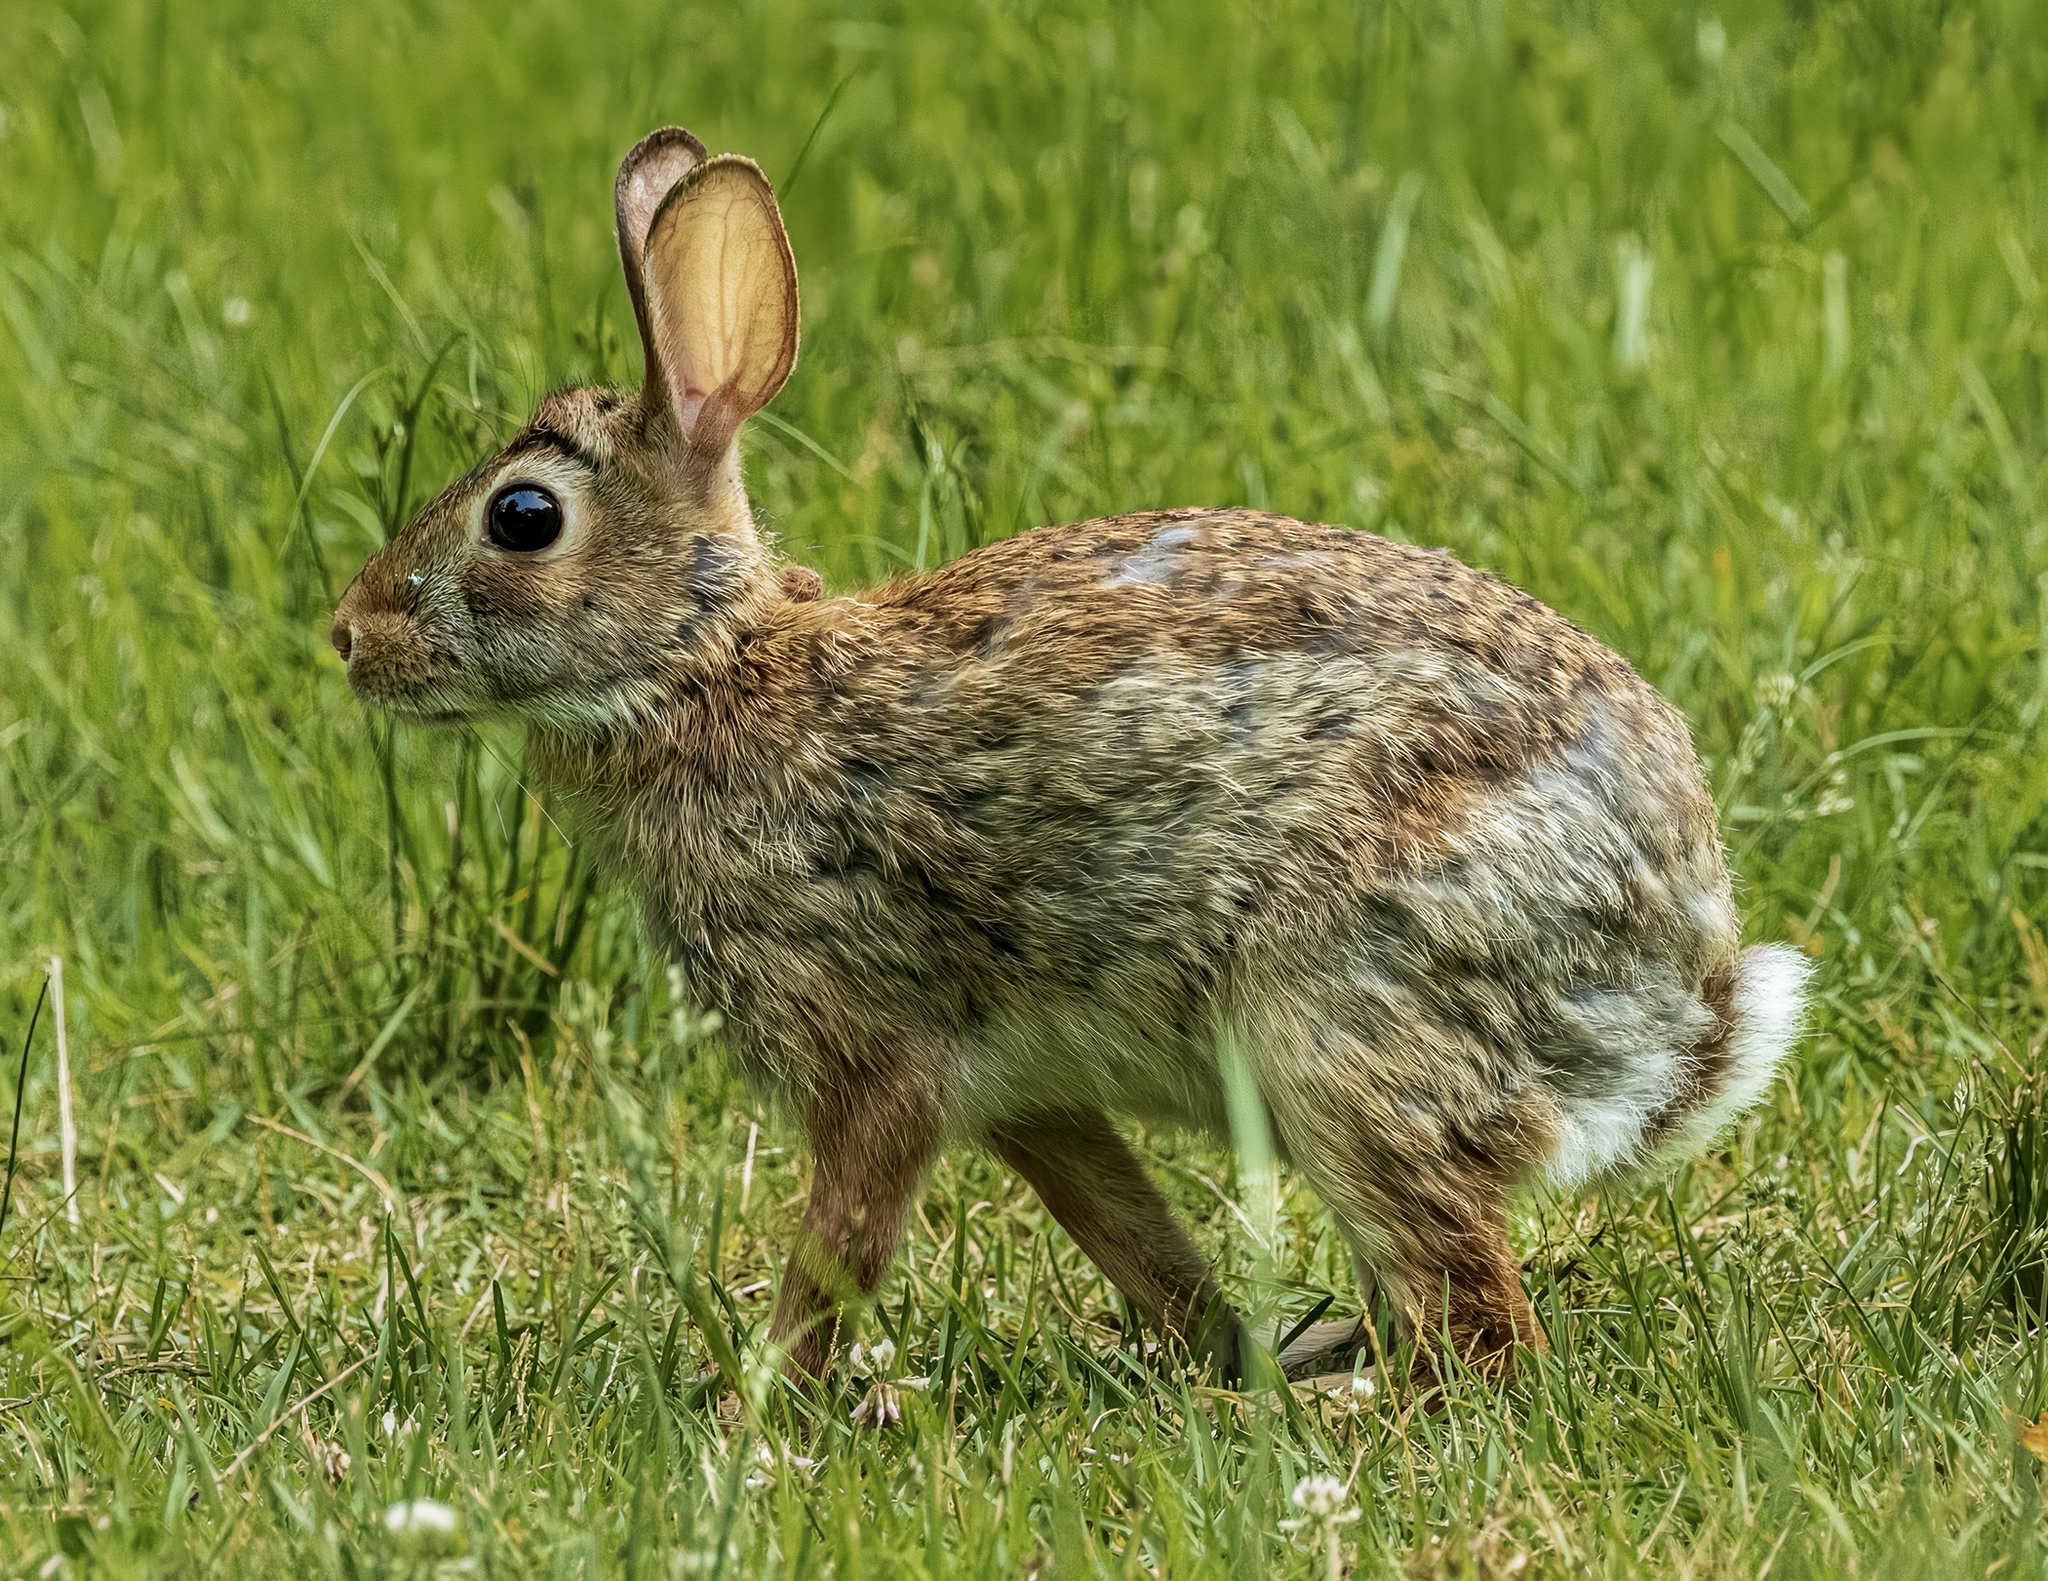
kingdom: Animalia
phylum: Chordata
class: Mammalia
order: Lagomorpha
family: Leporidae
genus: Sylvilagus
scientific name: Sylvilagus floridanus
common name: Eastern cottontail
